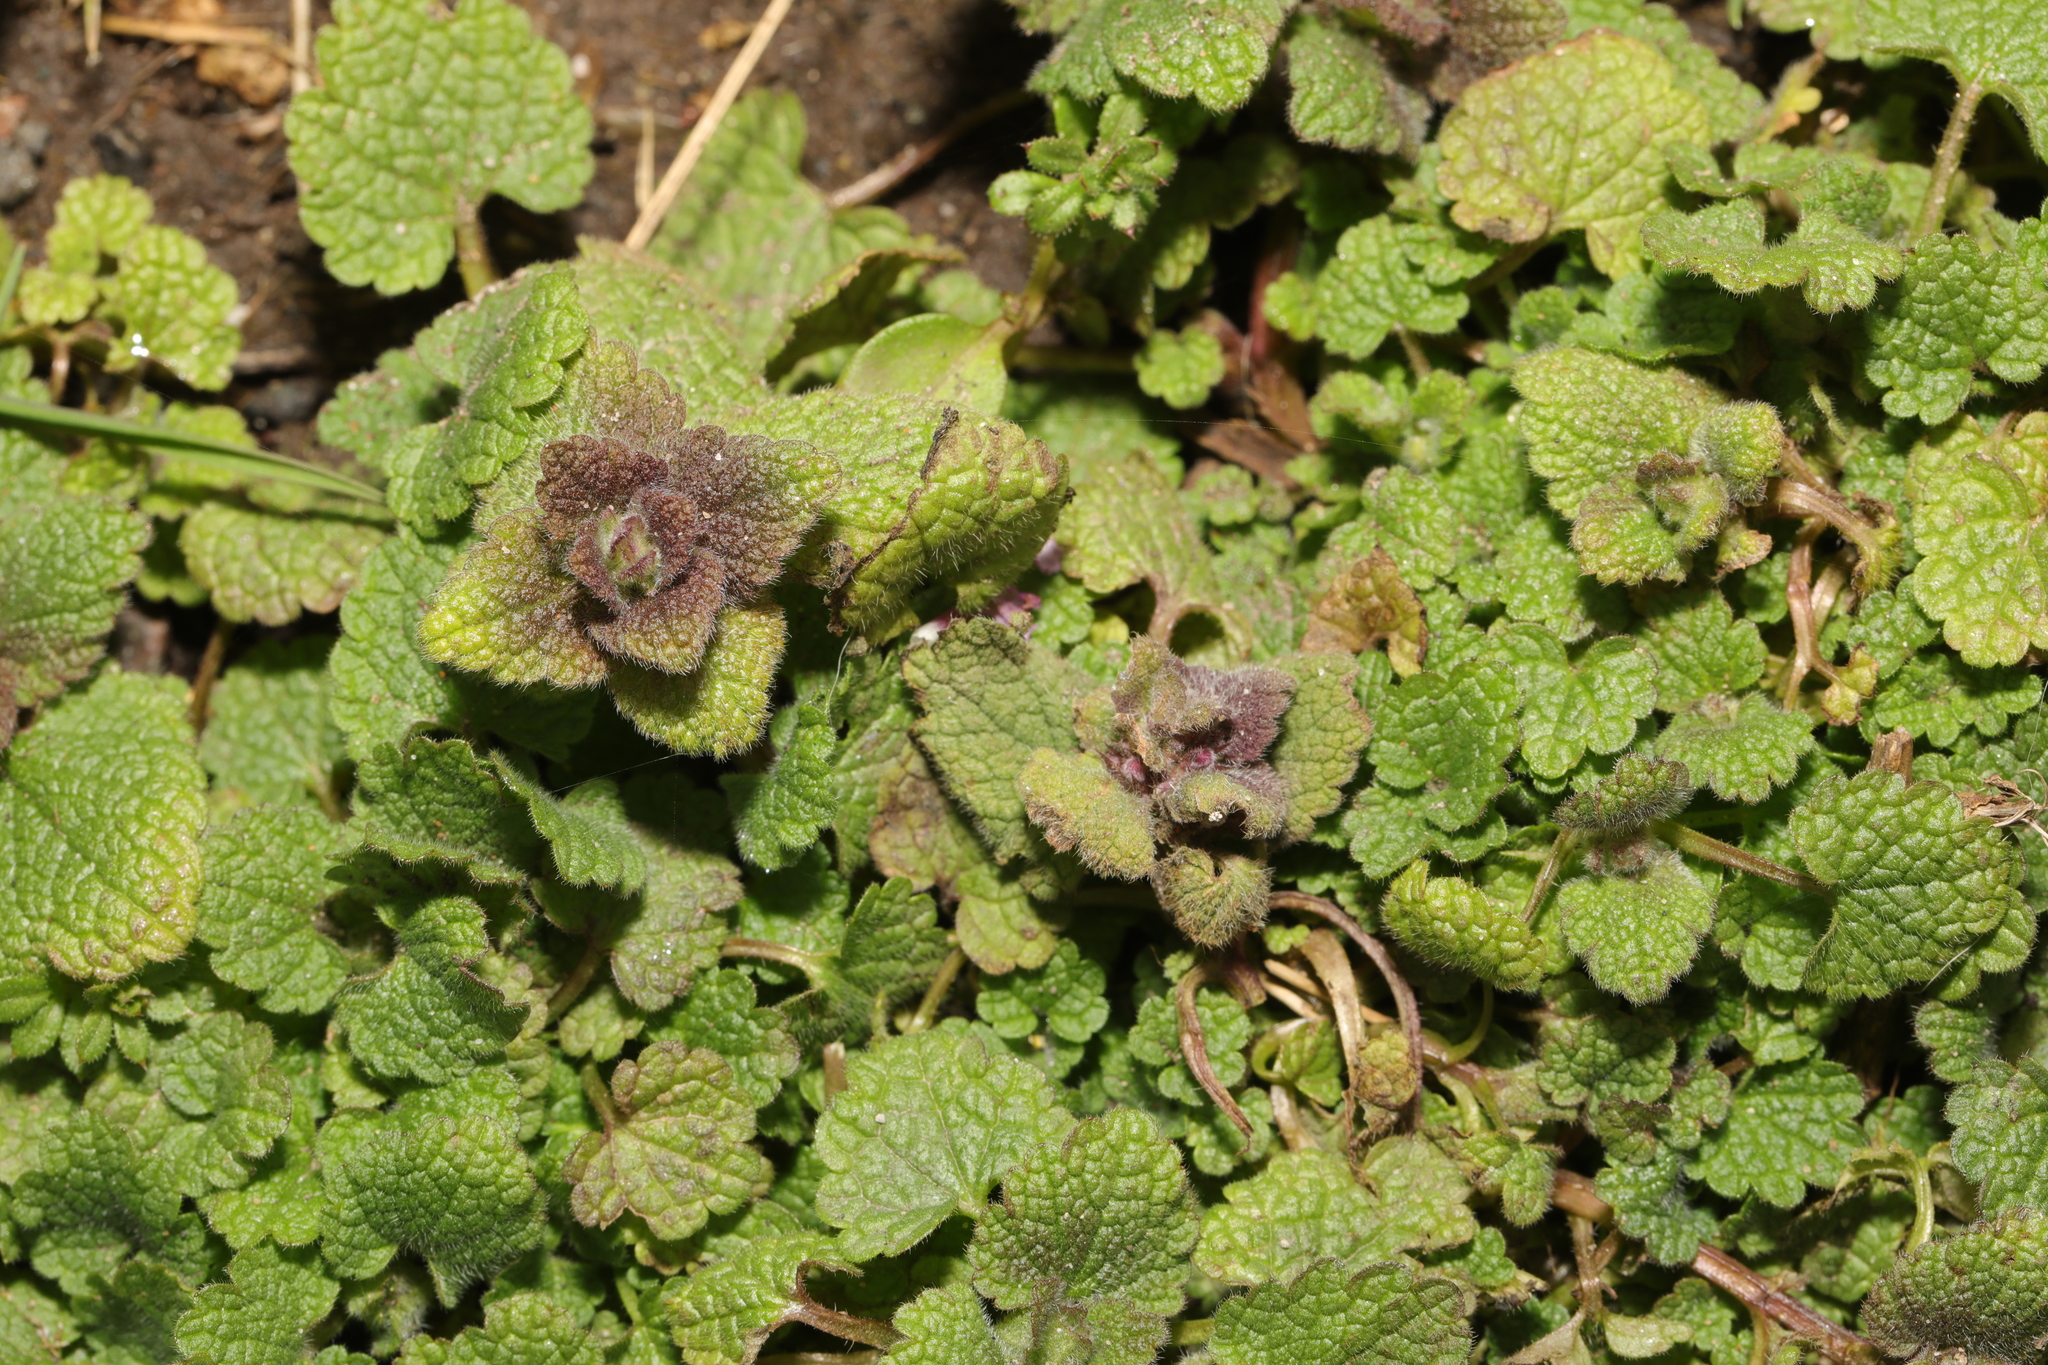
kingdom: Plantae
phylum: Tracheophyta
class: Magnoliopsida
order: Lamiales
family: Lamiaceae
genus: Lamium
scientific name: Lamium purpureum
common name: Red dead-nettle
